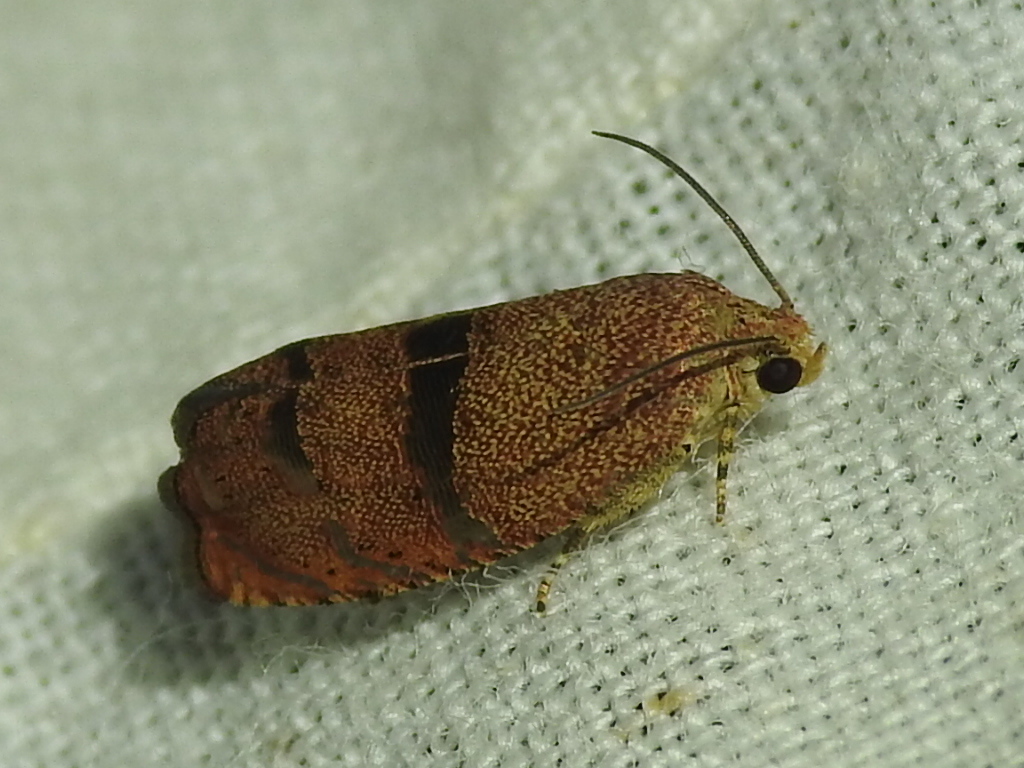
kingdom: Animalia
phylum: Arthropoda
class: Insecta
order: Lepidoptera
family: Tortricidae
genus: Cydia
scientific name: Cydia latiferreana
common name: Filbertworm moth
